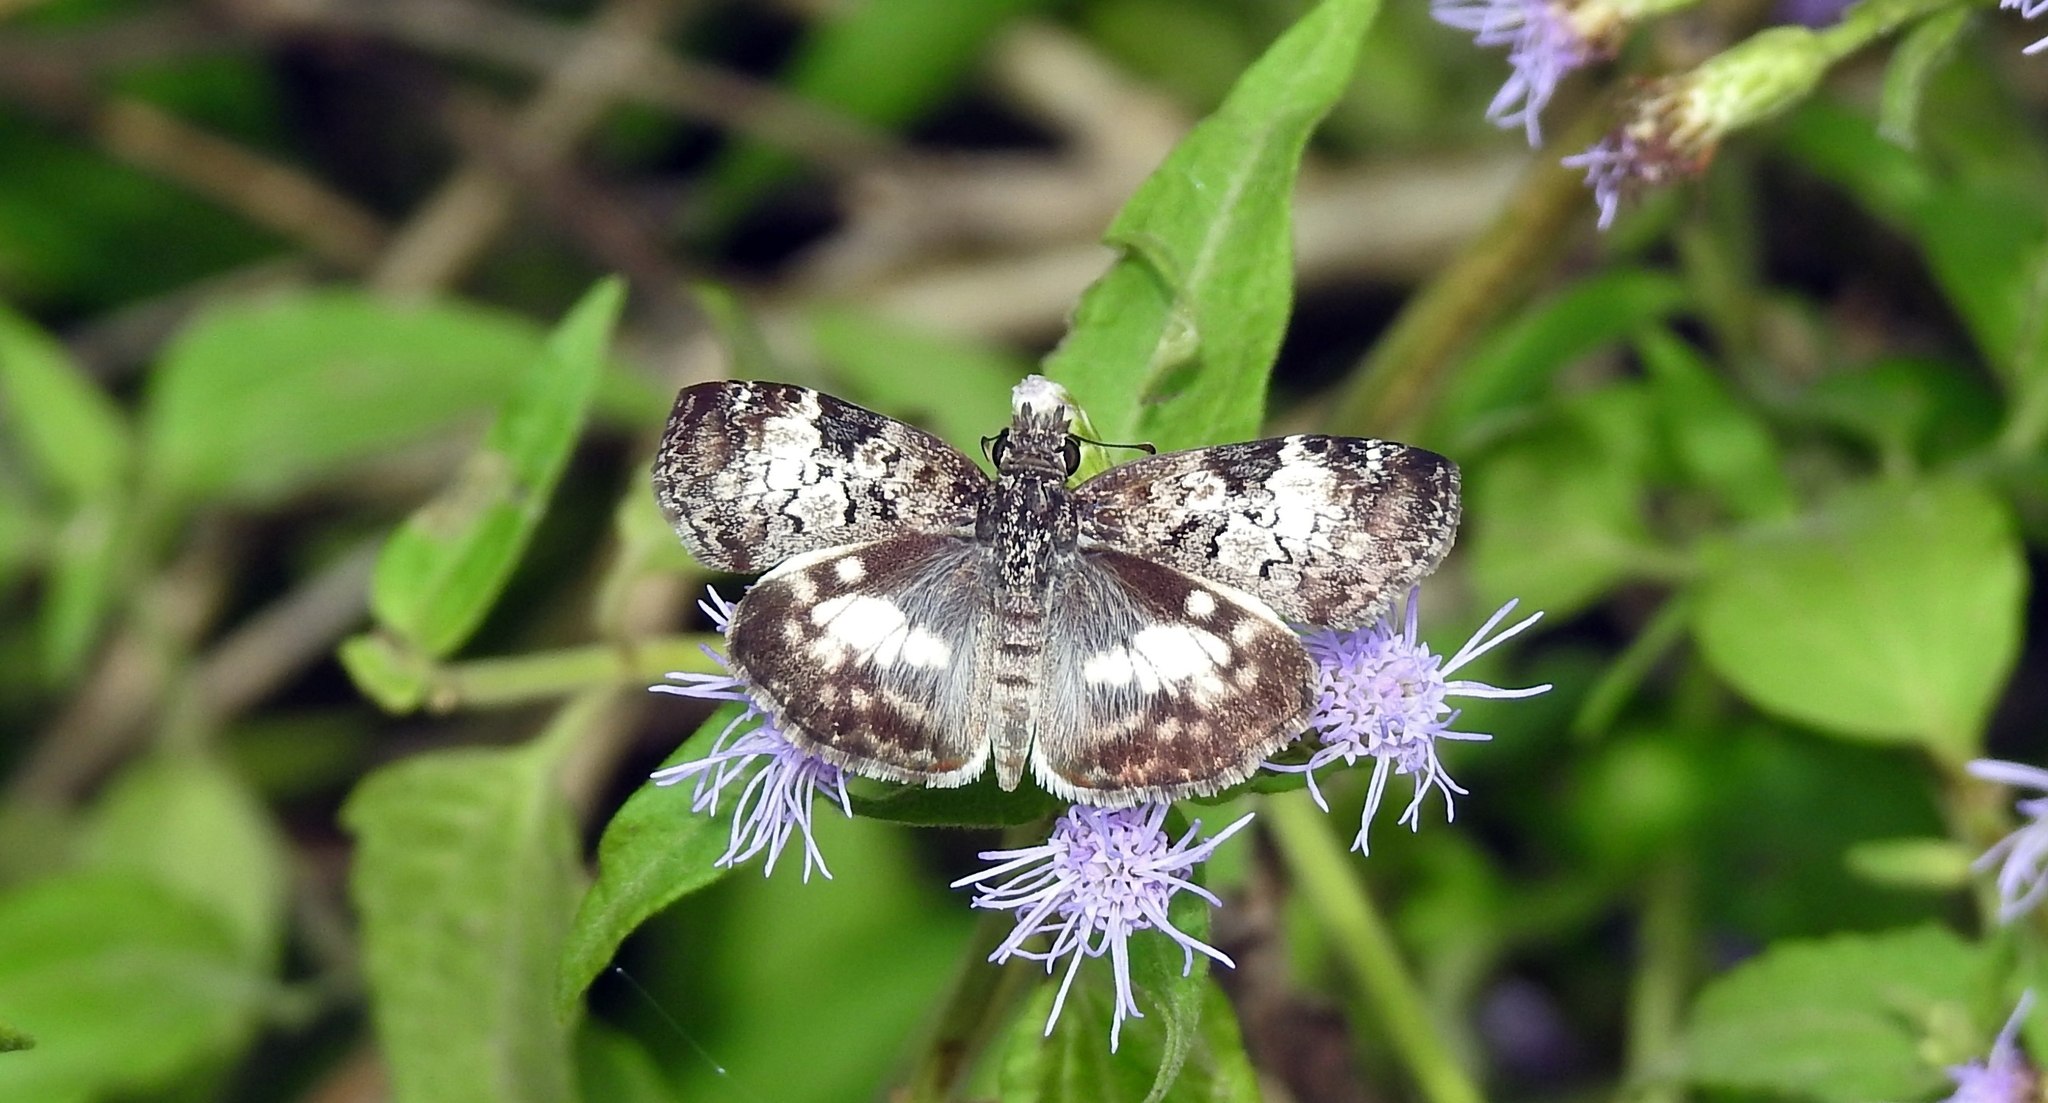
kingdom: Animalia
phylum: Arthropoda
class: Insecta
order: Lepidoptera
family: Hesperiidae
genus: Chiothion
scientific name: Chiothion georgina
